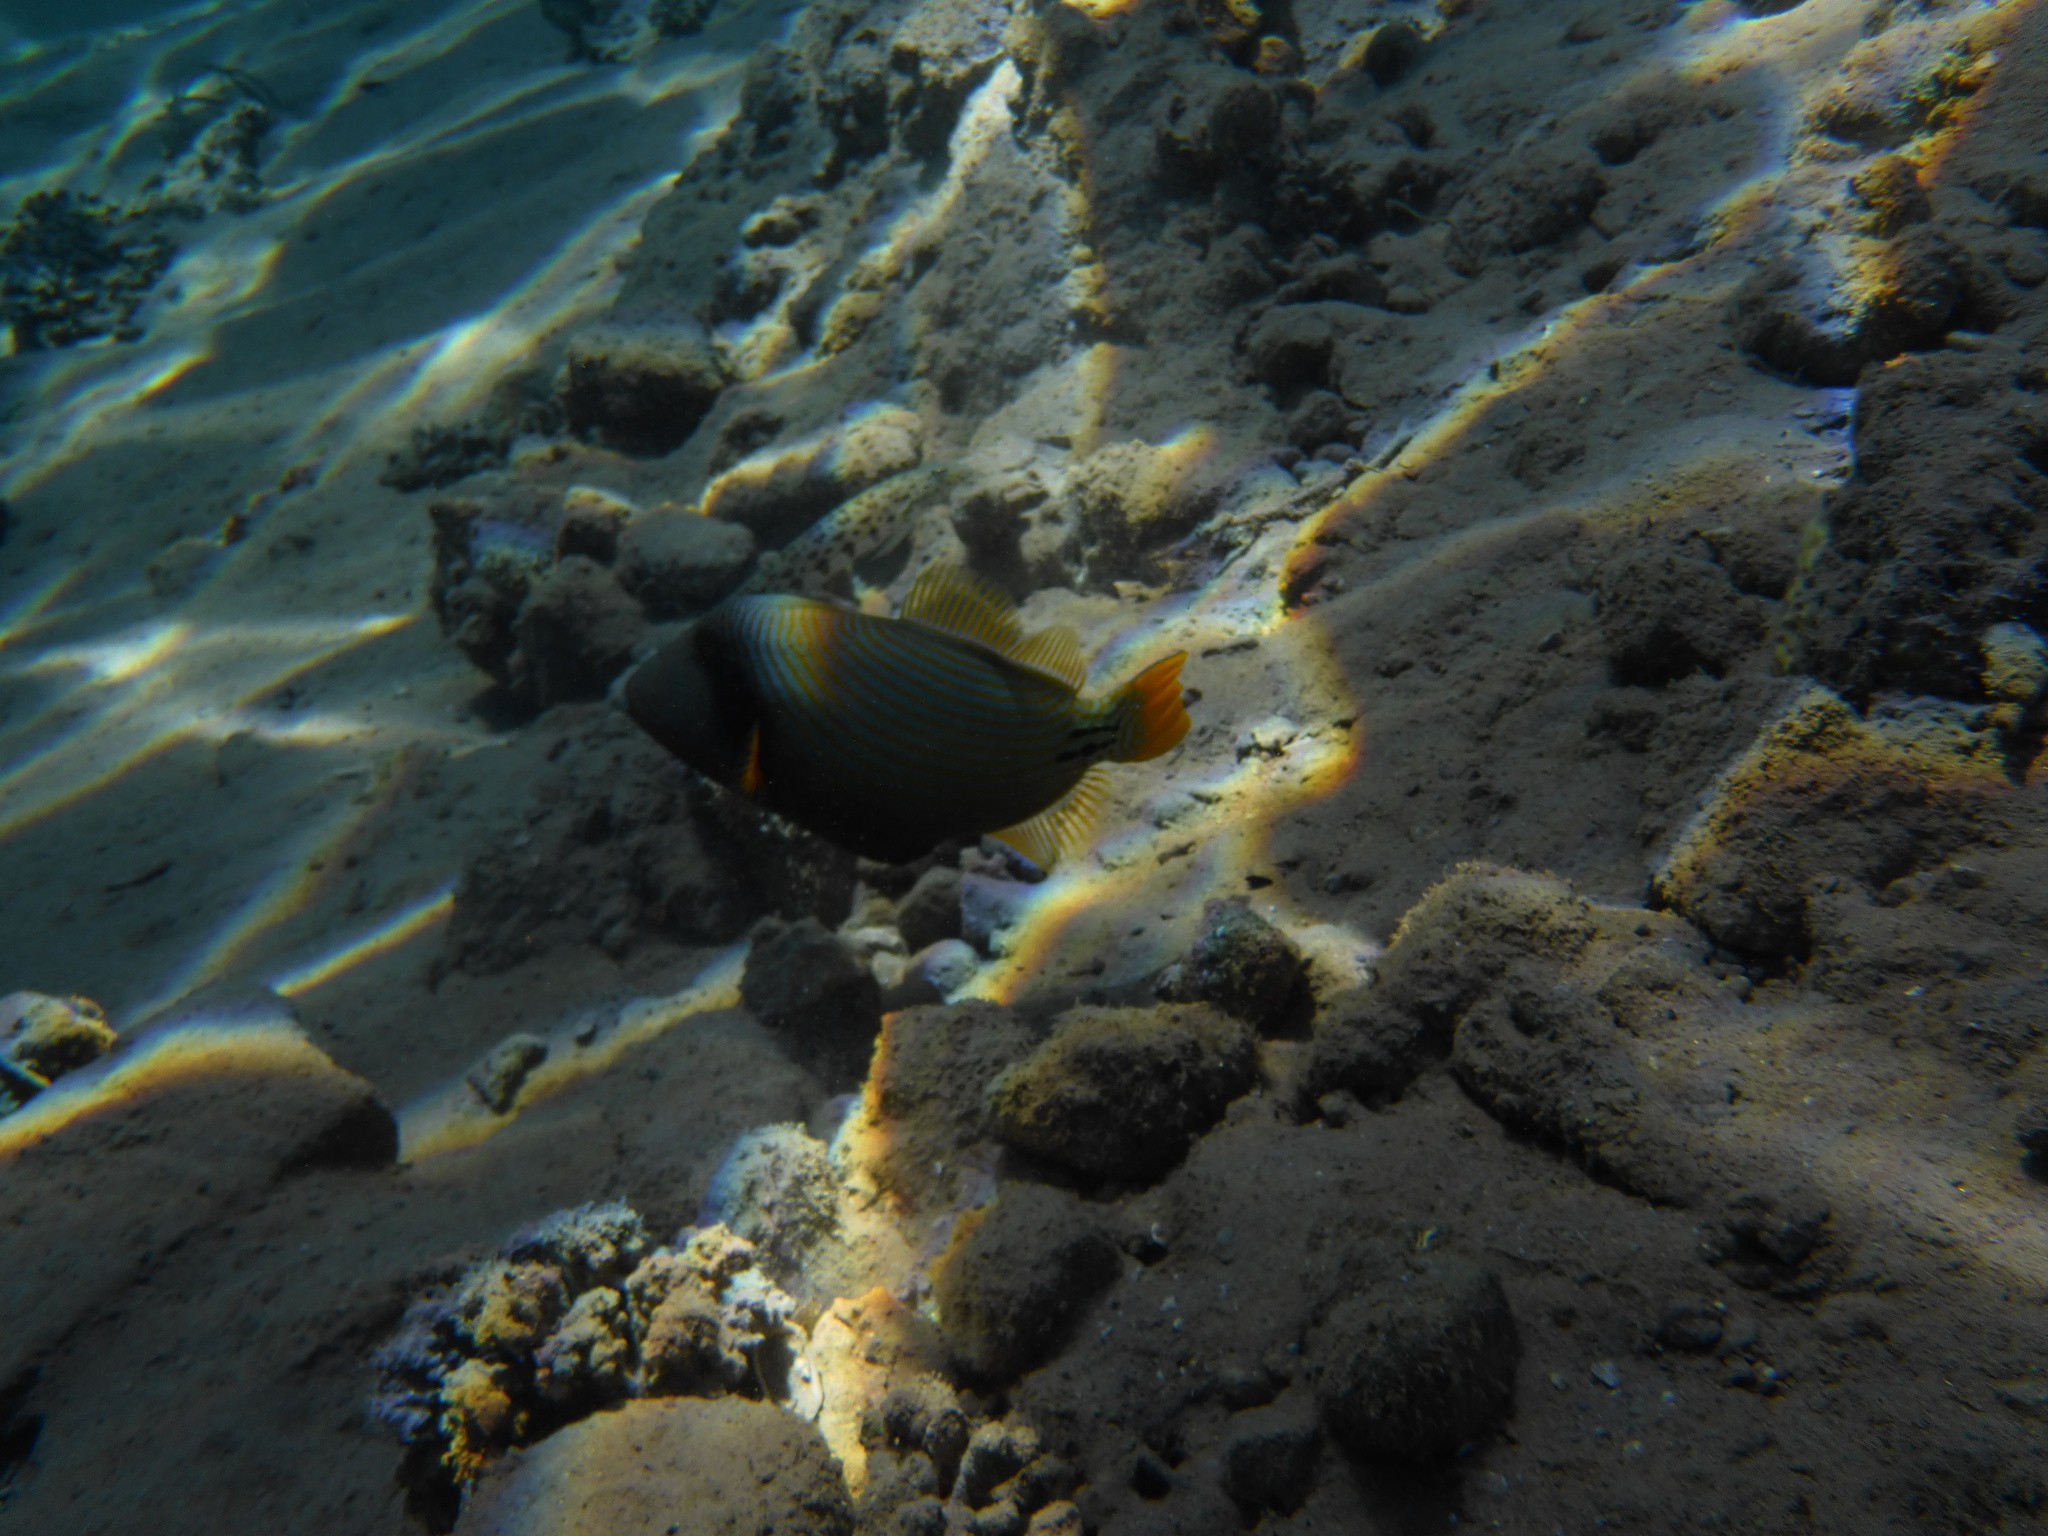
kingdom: Animalia
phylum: Chordata
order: Tetraodontiformes
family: Balistidae
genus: Balistapus
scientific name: Balistapus undulatus
